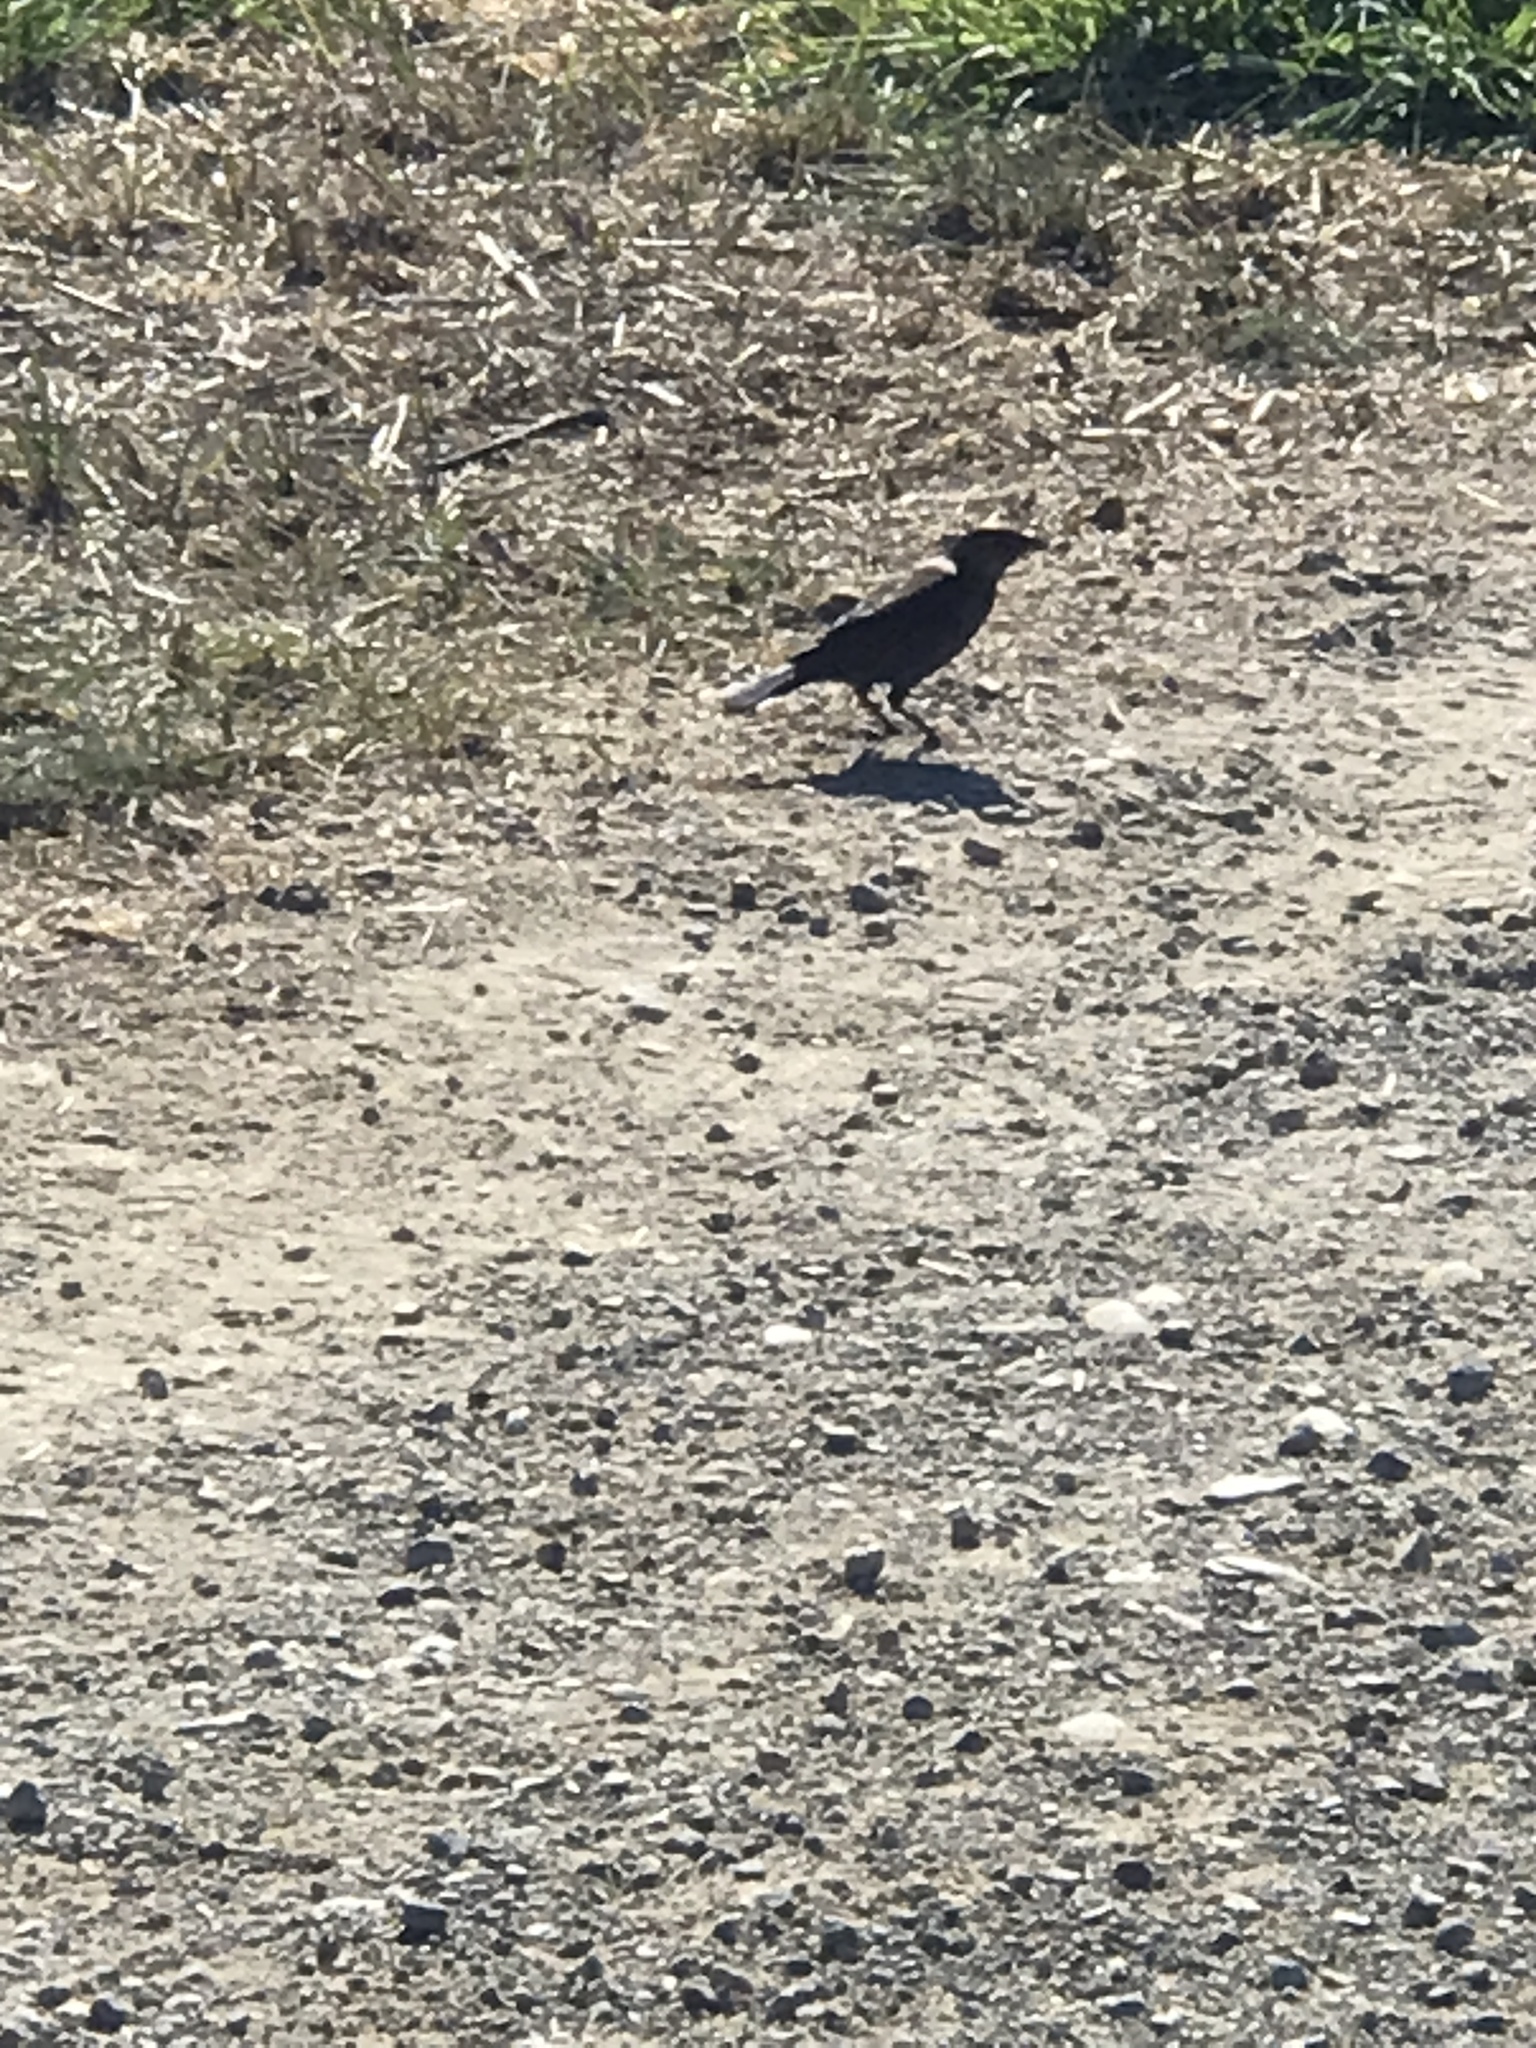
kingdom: Animalia
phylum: Chordata
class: Aves
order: Passeriformes
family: Icteridae
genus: Euphagus
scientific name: Euphagus cyanocephalus
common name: Brewer's blackbird
